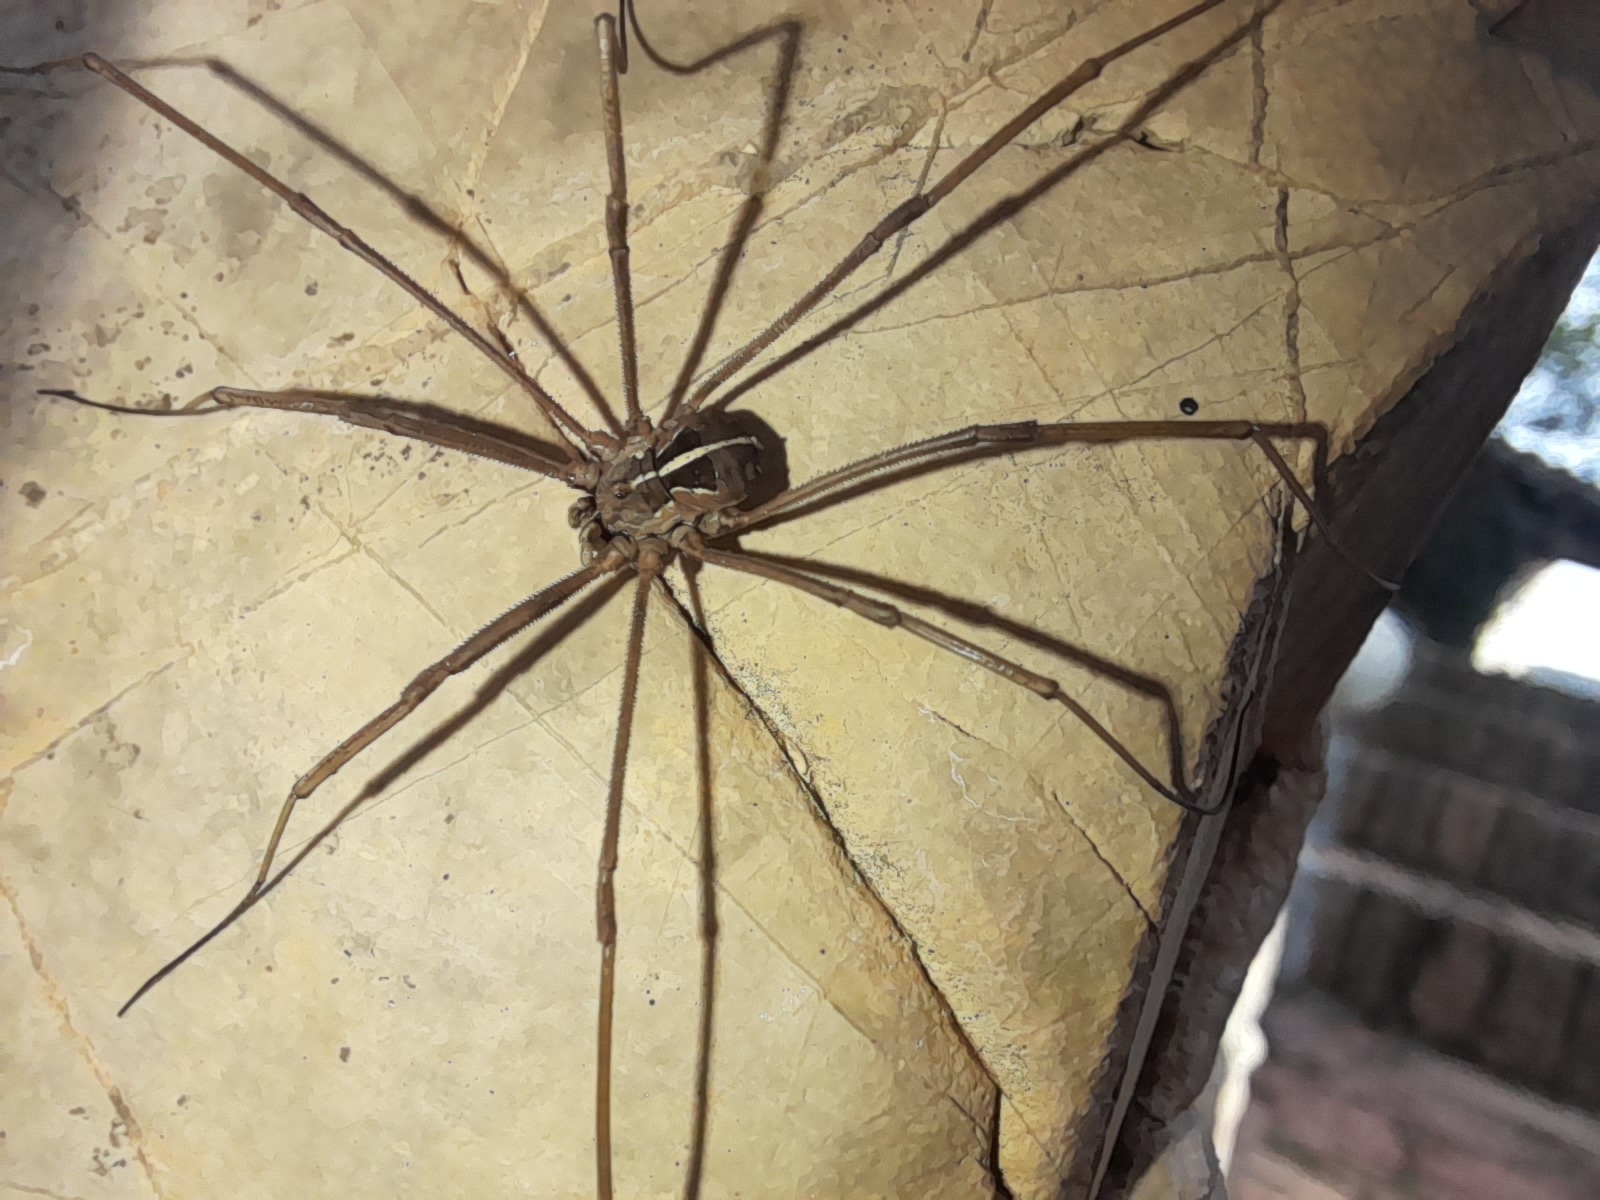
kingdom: Animalia
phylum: Arthropoda
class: Arachnida
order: Opiliones
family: Phalangiidae
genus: Metaphalangium
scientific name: Metaphalangium cirtanum
